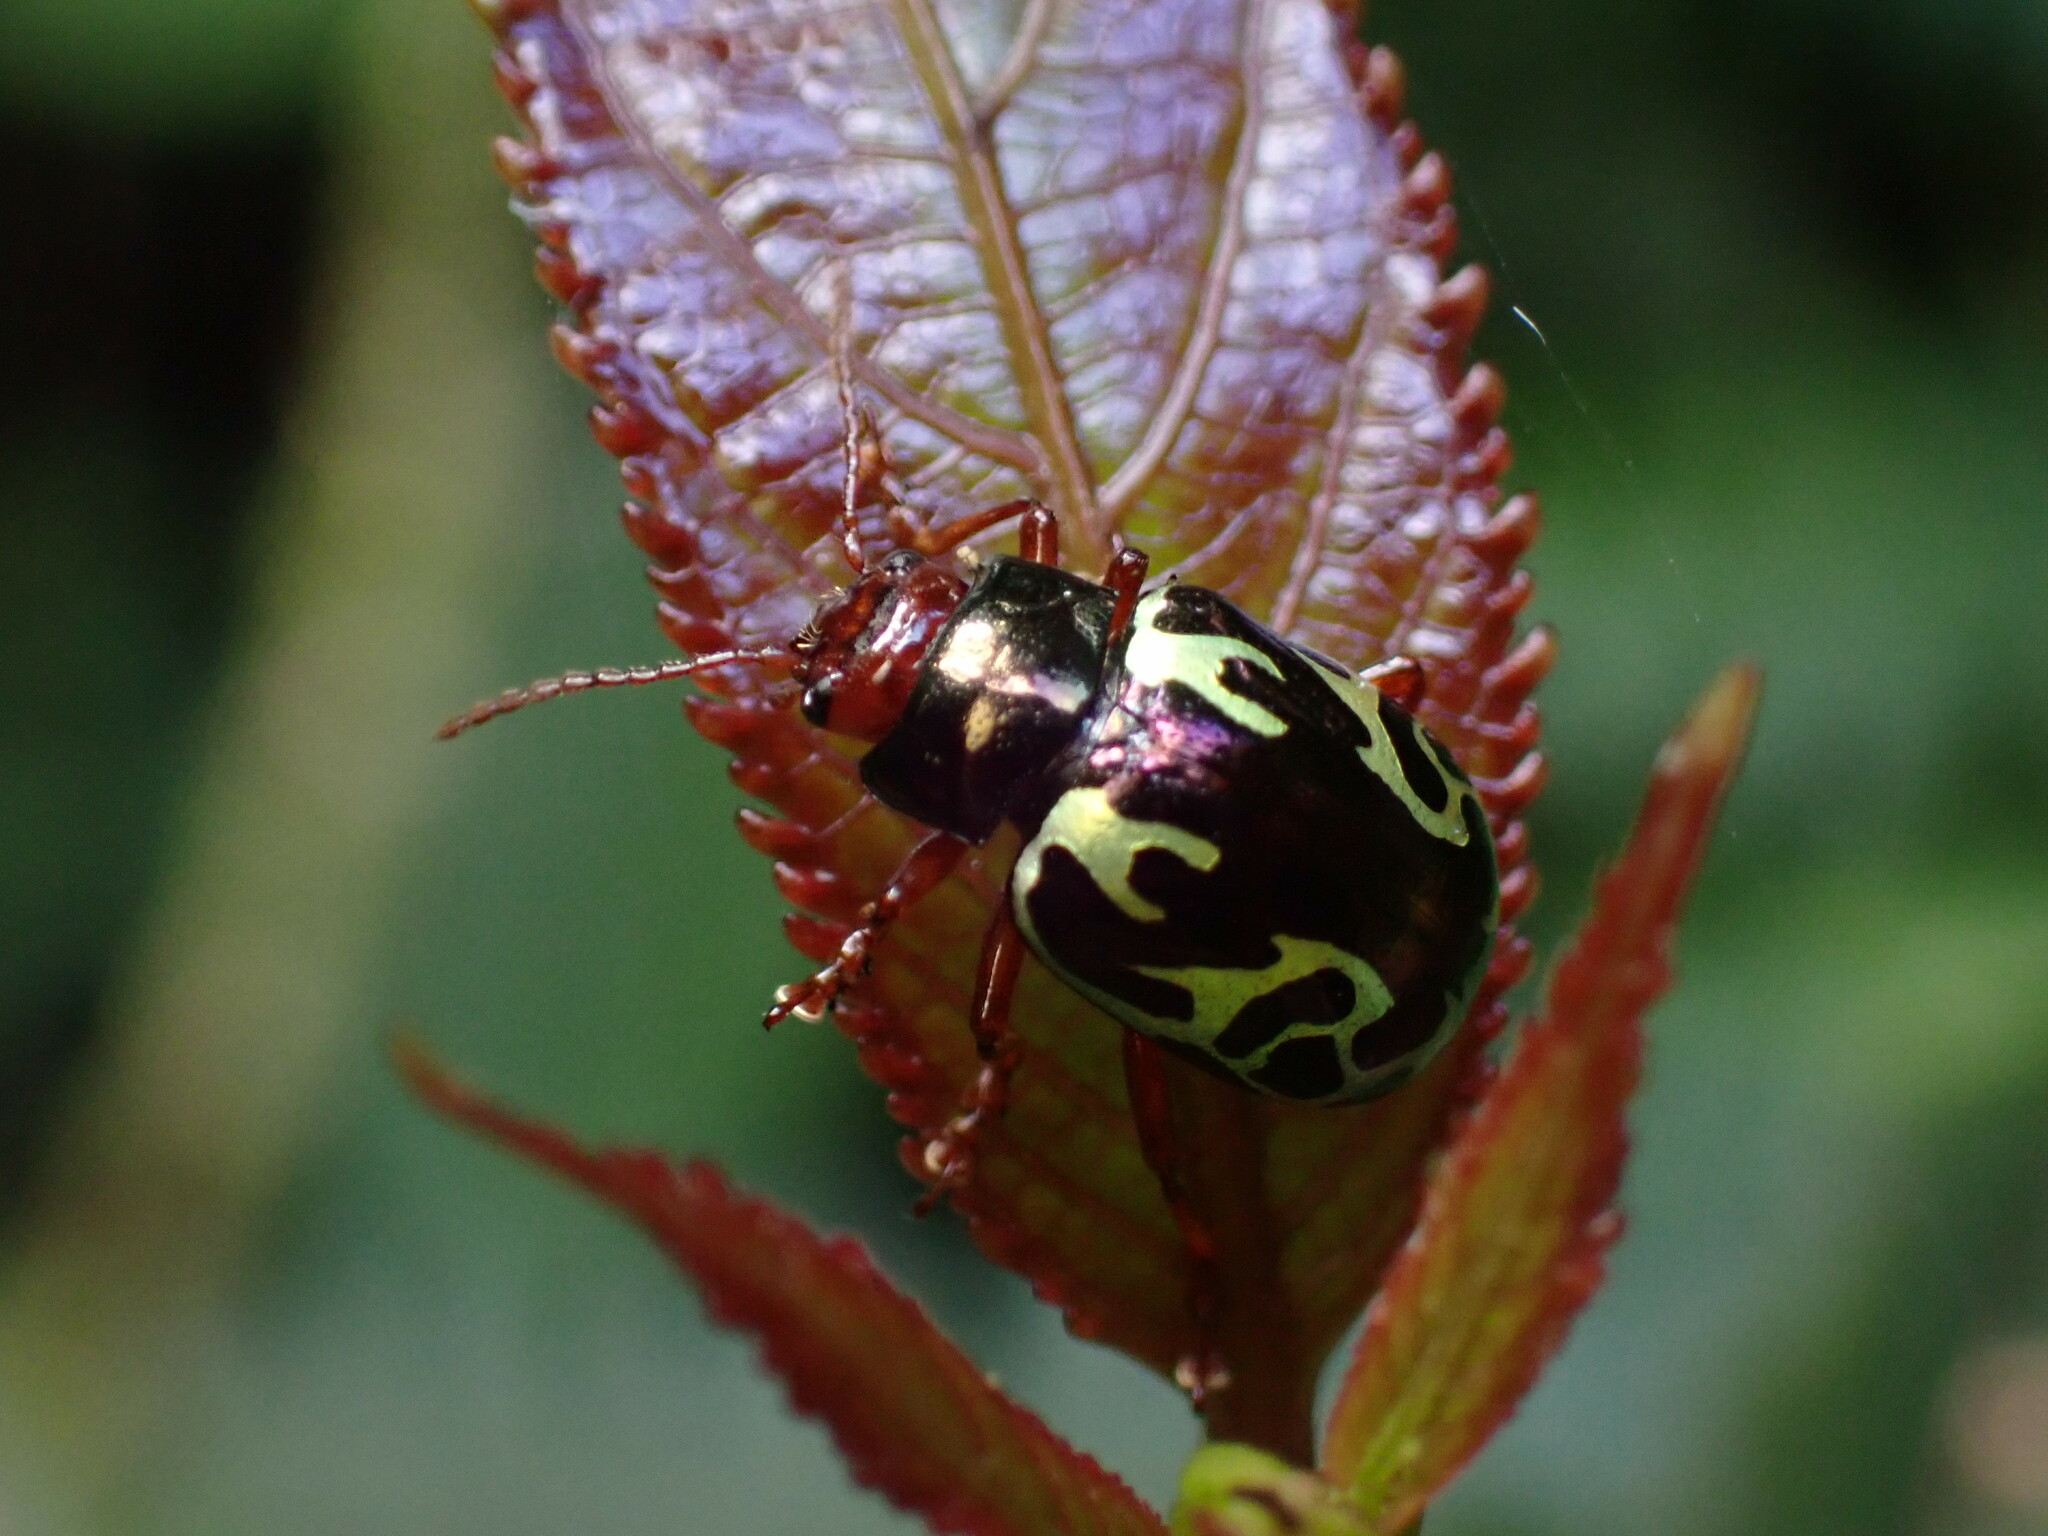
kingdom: Animalia
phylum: Arthropoda
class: Insecta
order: Coleoptera
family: Chrysomelidae
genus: Calligrapha
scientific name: Calligrapha
